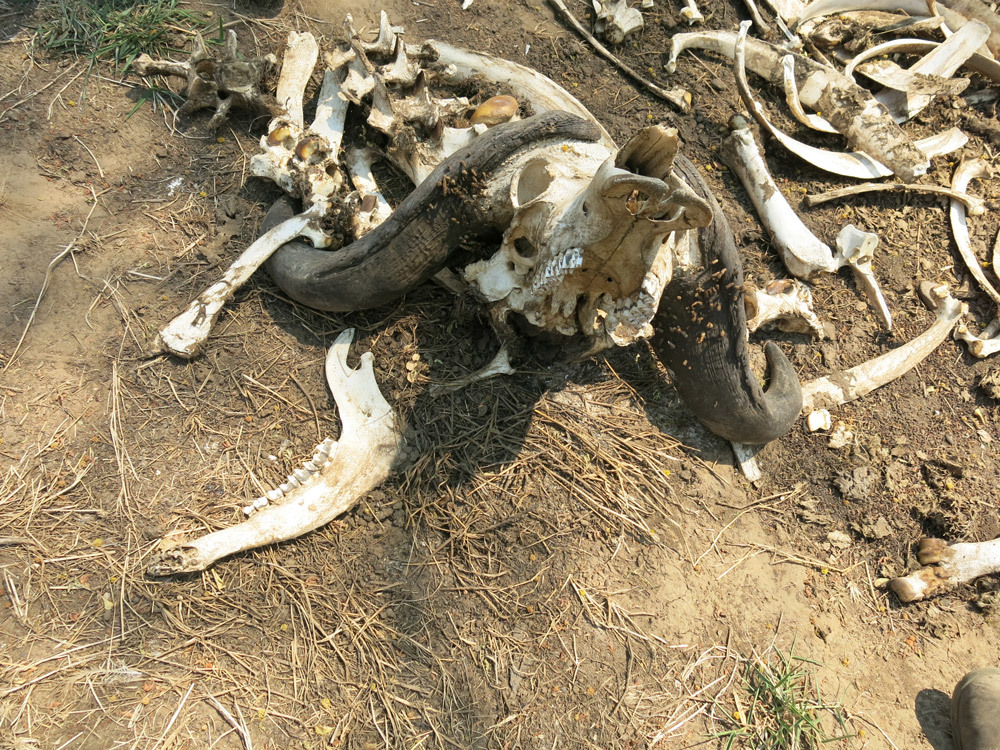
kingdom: Animalia
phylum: Chordata
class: Mammalia
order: Artiodactyla
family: Bovidae
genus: Syncerus
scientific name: Syncerus caffer
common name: African buffalo
